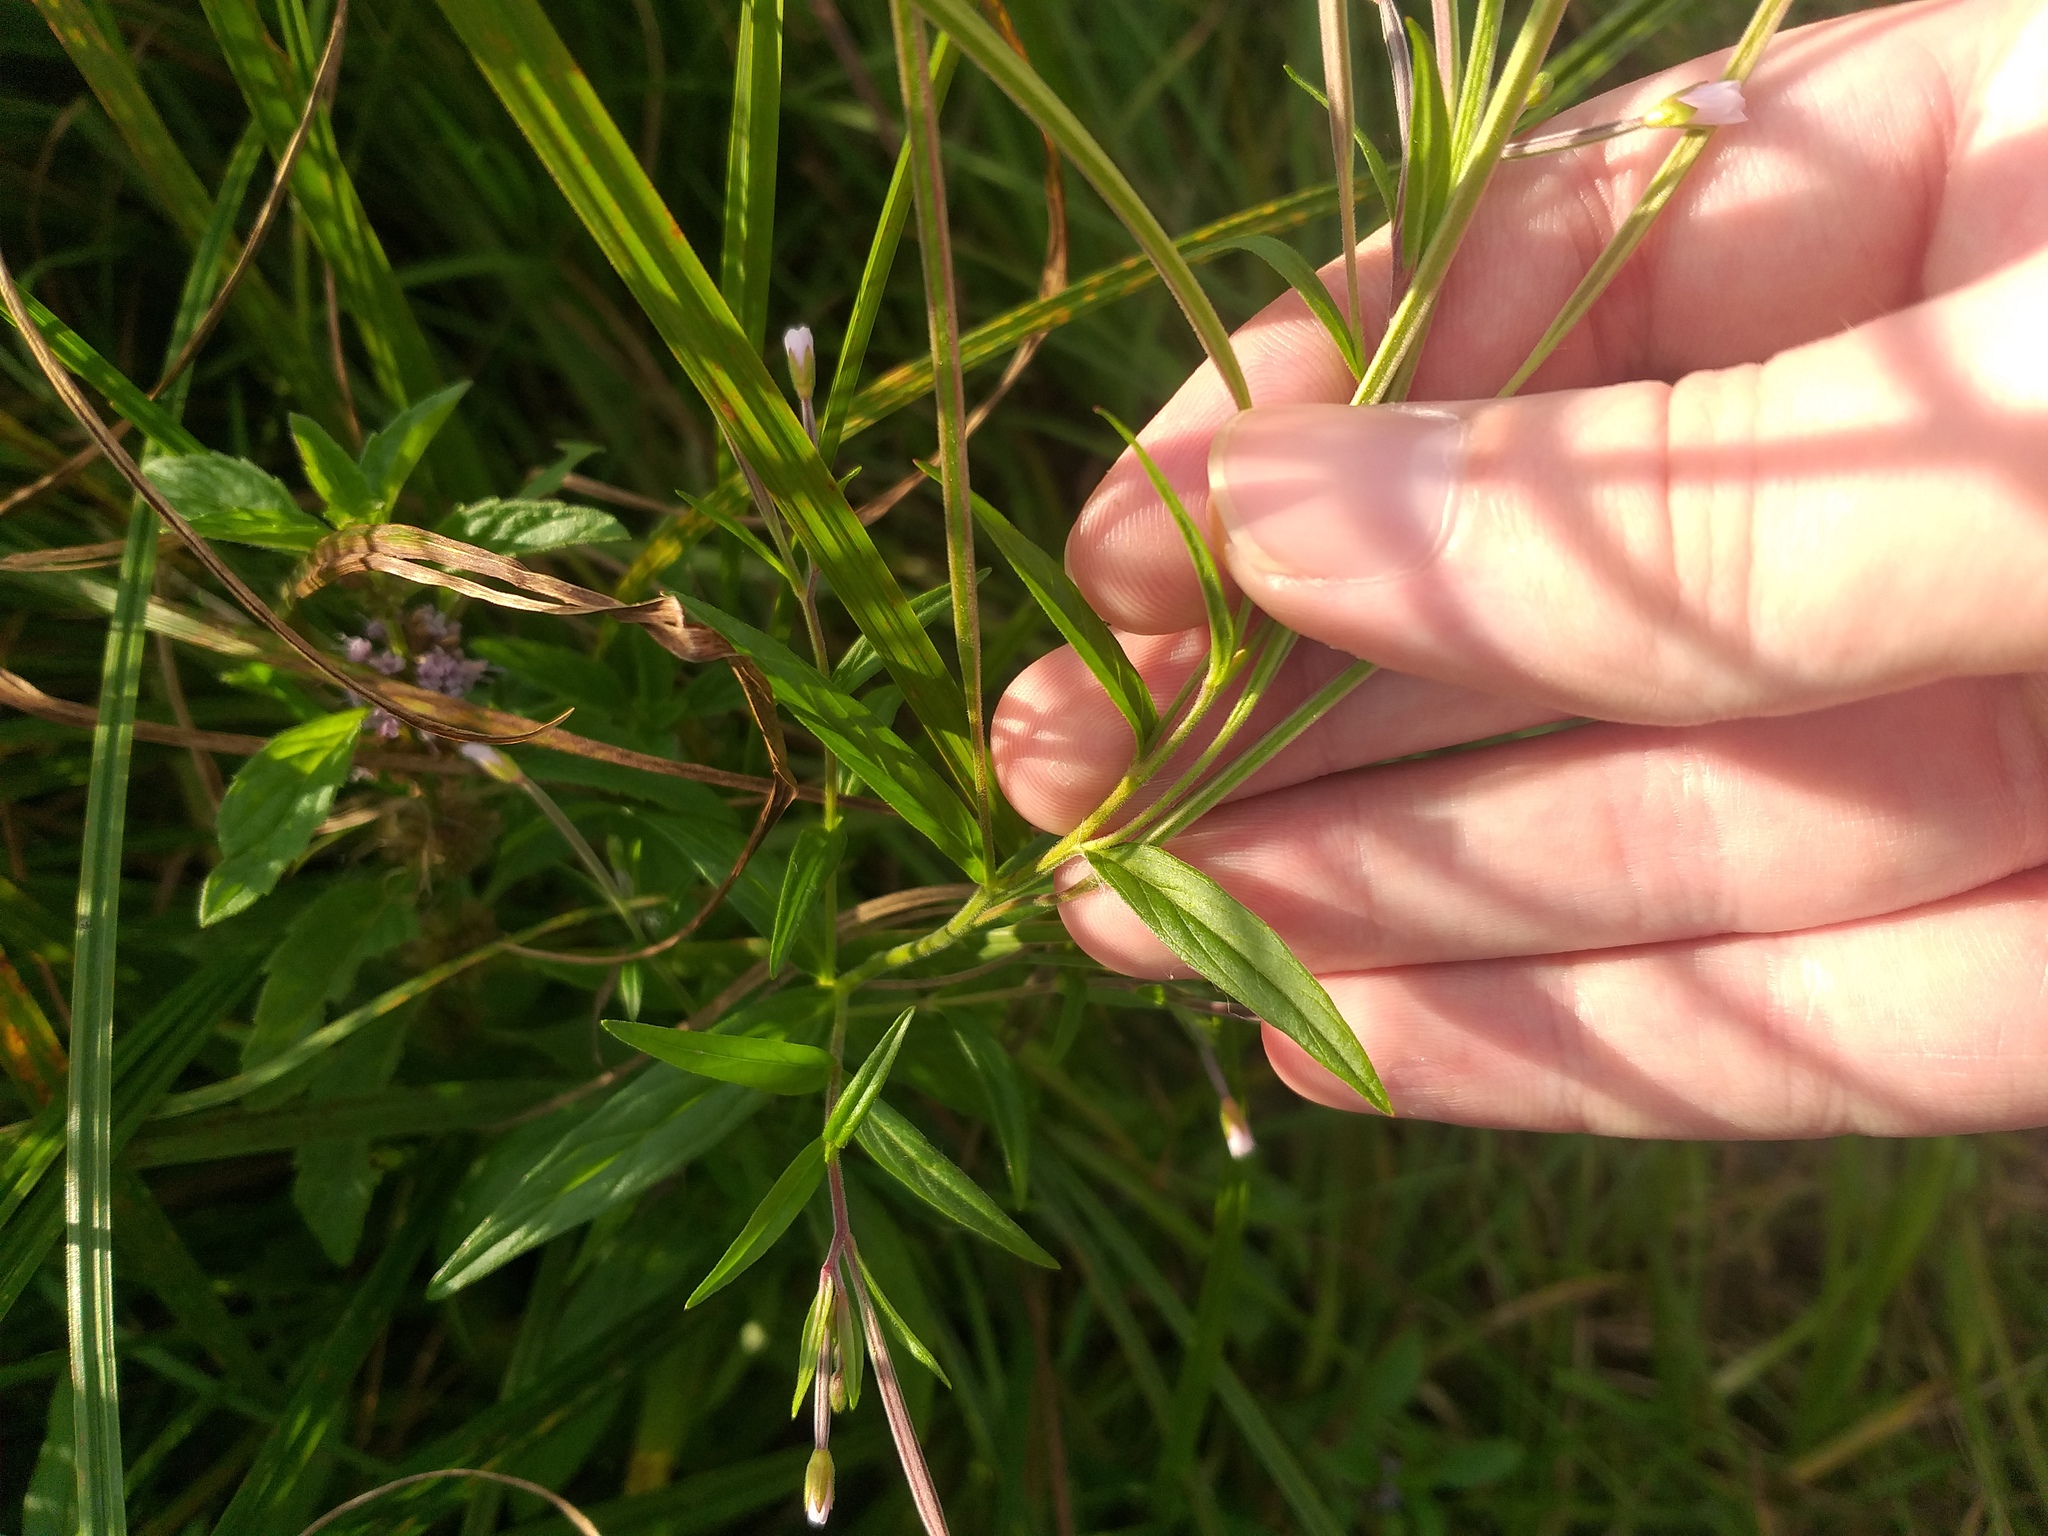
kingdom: Plantae
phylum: Tracheophyta
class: Magnoliopsida
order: Myrtales
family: Onagraceae
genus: Epilobium
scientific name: Epilobium palustre
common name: Marsh willowherb
